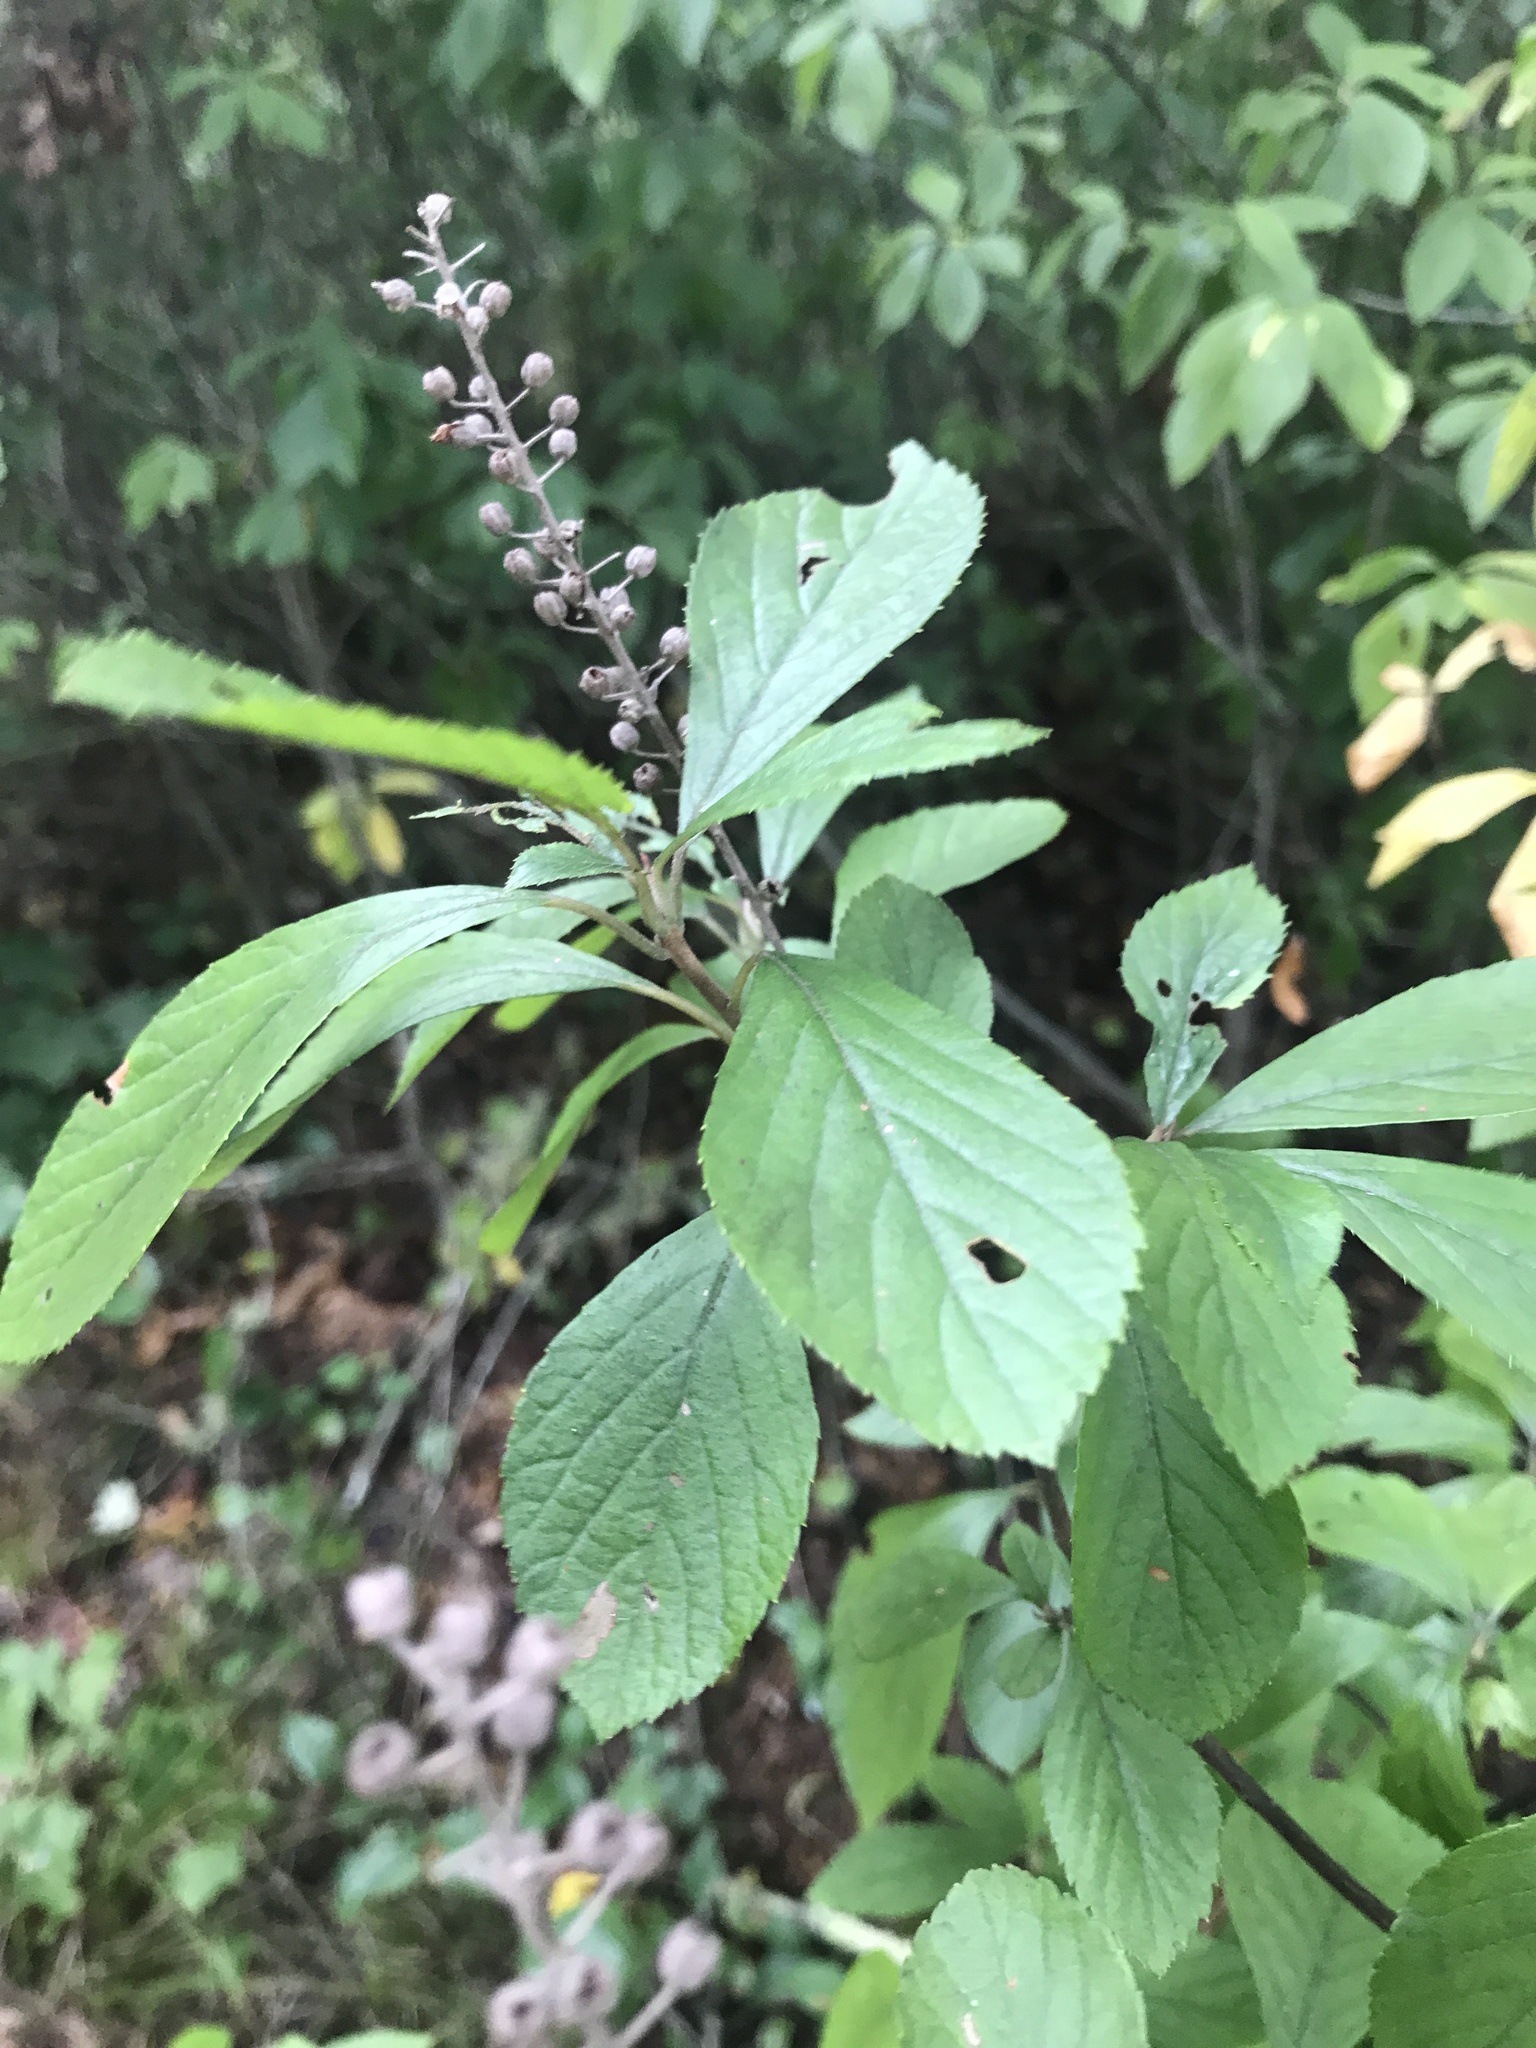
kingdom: Plantae
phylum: Tracheophyta
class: Magnoliopsida
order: Ericales
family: Clethraceae
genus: Clethra
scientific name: Clethra alnifolia
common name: Sweet pepperbush
